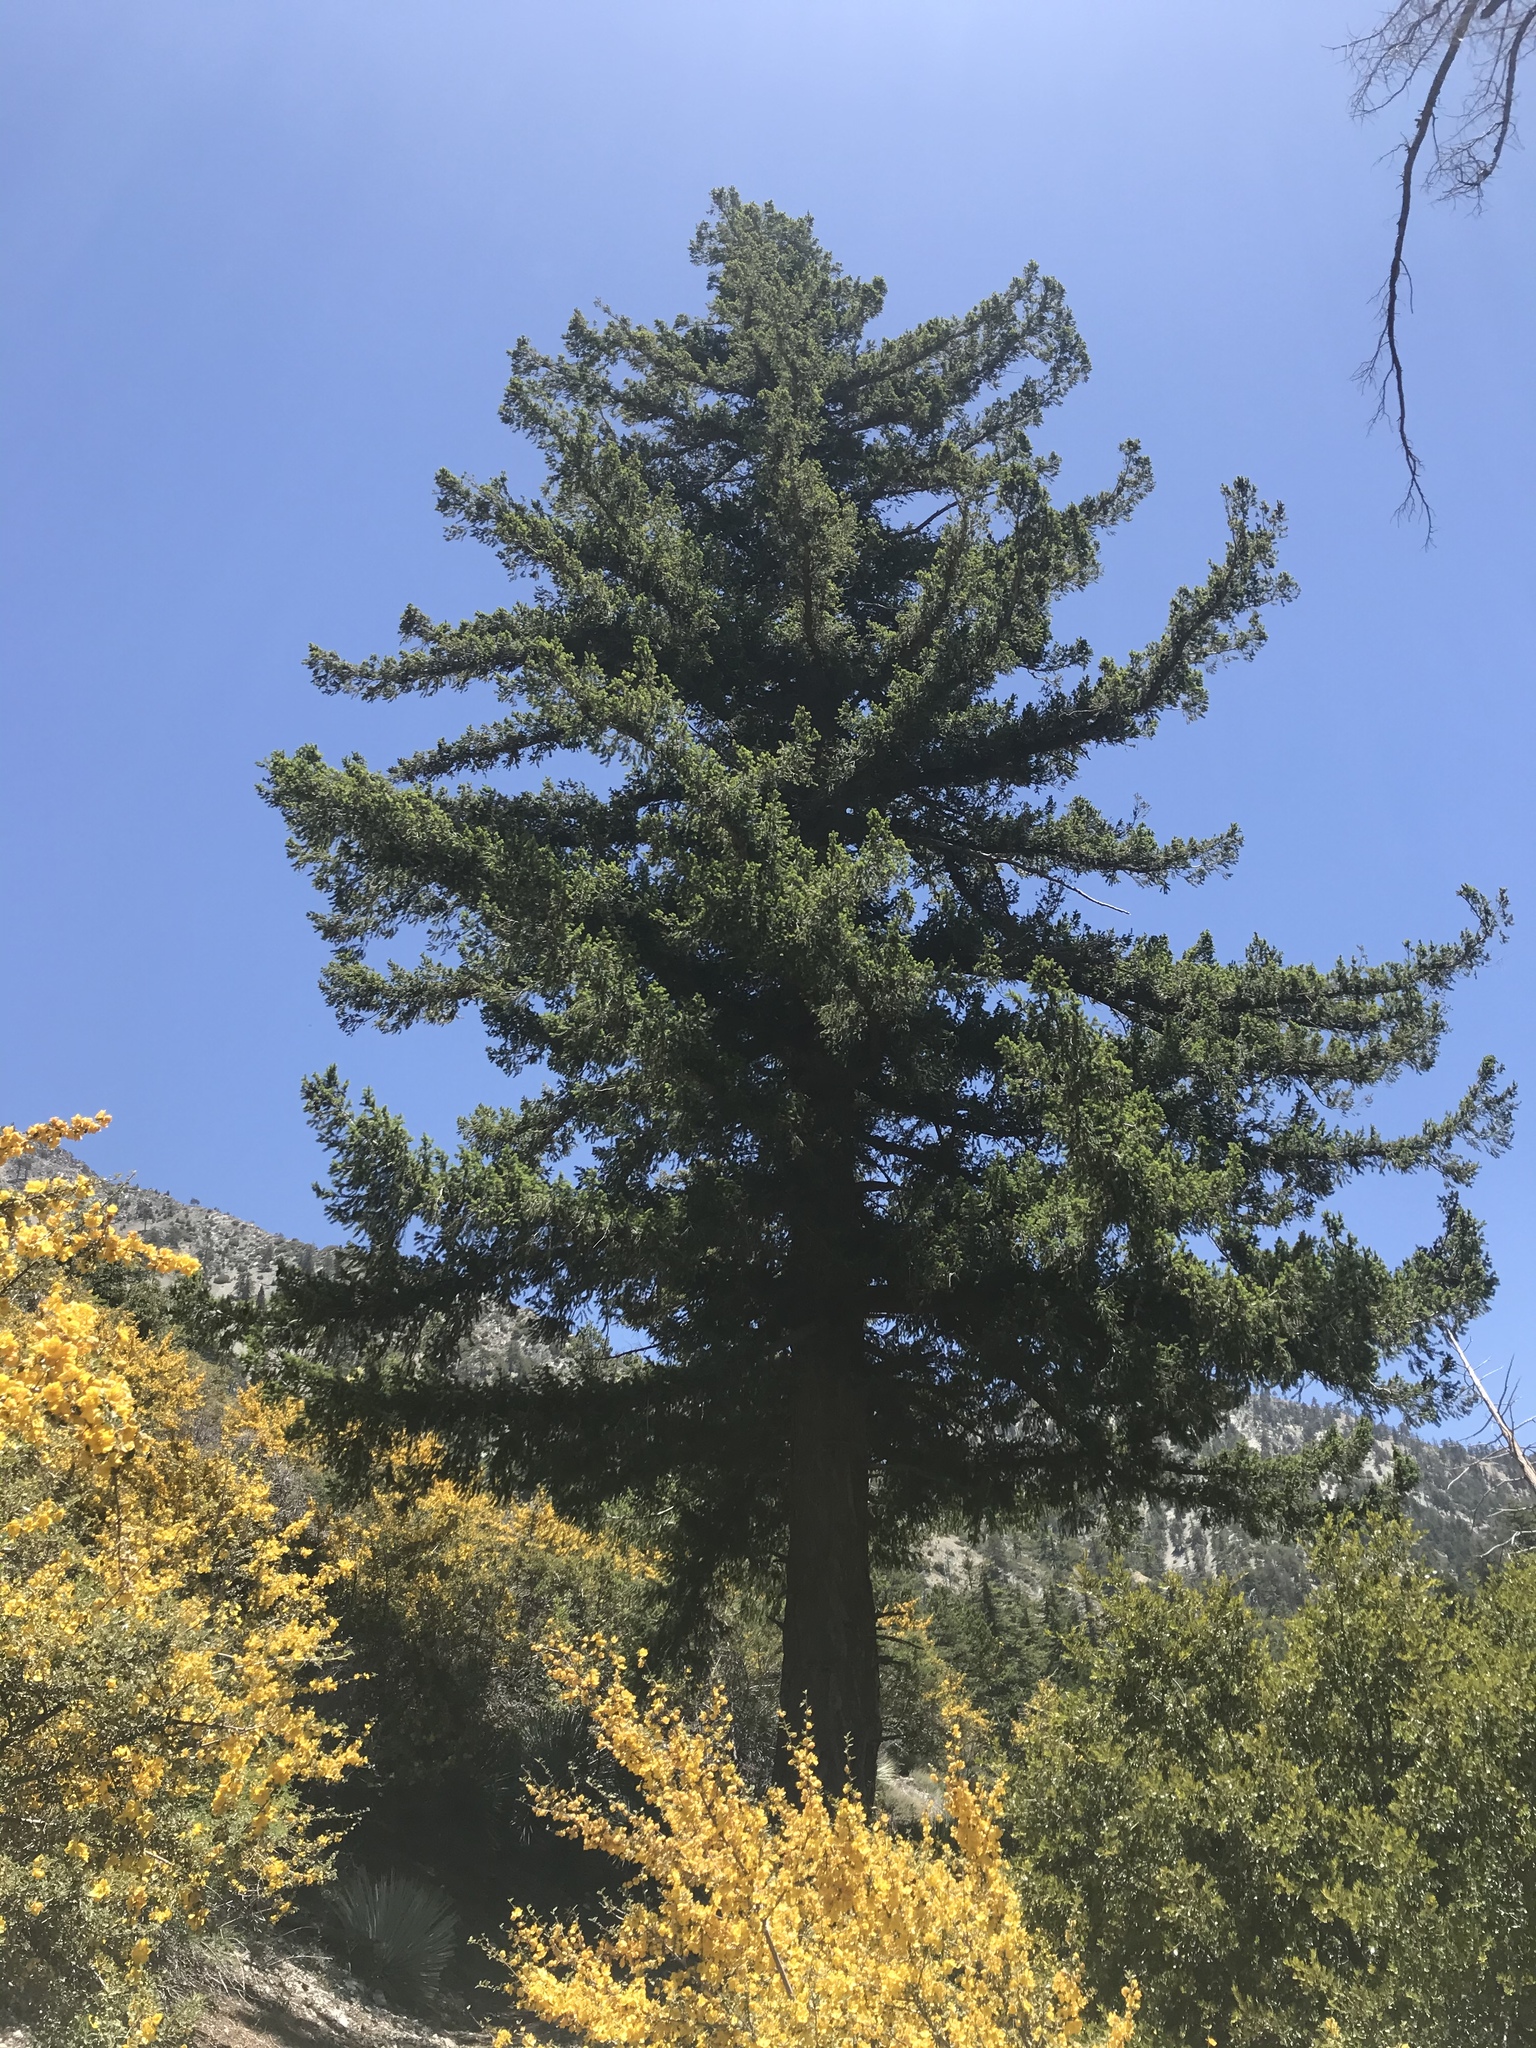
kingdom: Plantae
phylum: Tracheophyta
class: Pinopsida
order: Pinales
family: Pinaceae
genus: Pseudotsuga
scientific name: Pseudotsuga macrocarpa
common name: Big-cone douglas-fir
